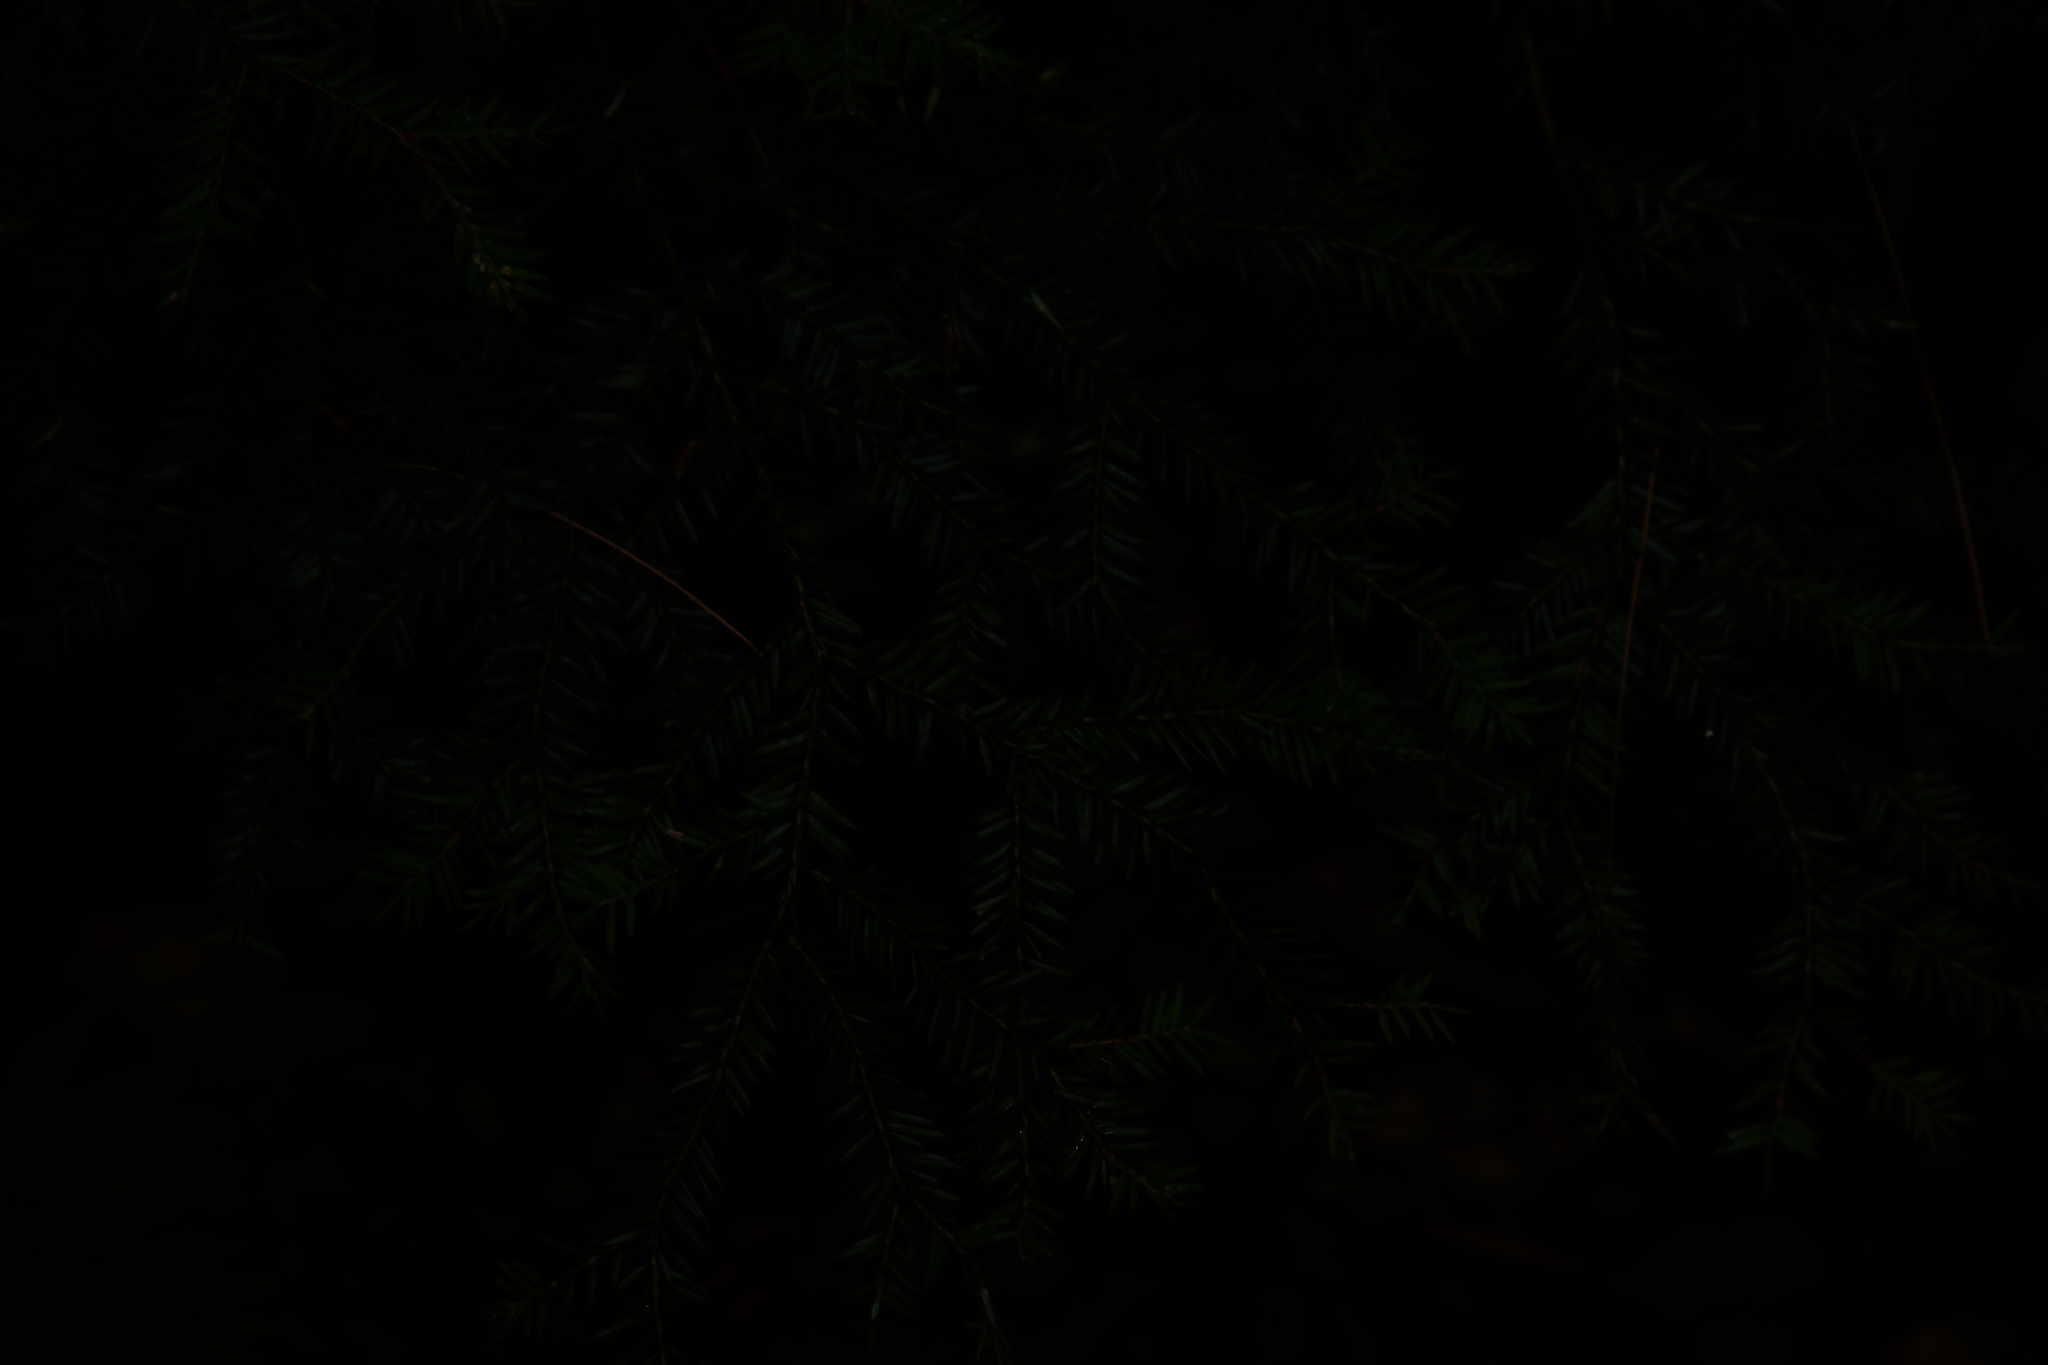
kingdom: Plantae
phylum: Tracheophyta
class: Pinopsida
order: Pinales
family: Pinaceae
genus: Tsuga
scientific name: Tsuga canadensis
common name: Eastern hemlock
